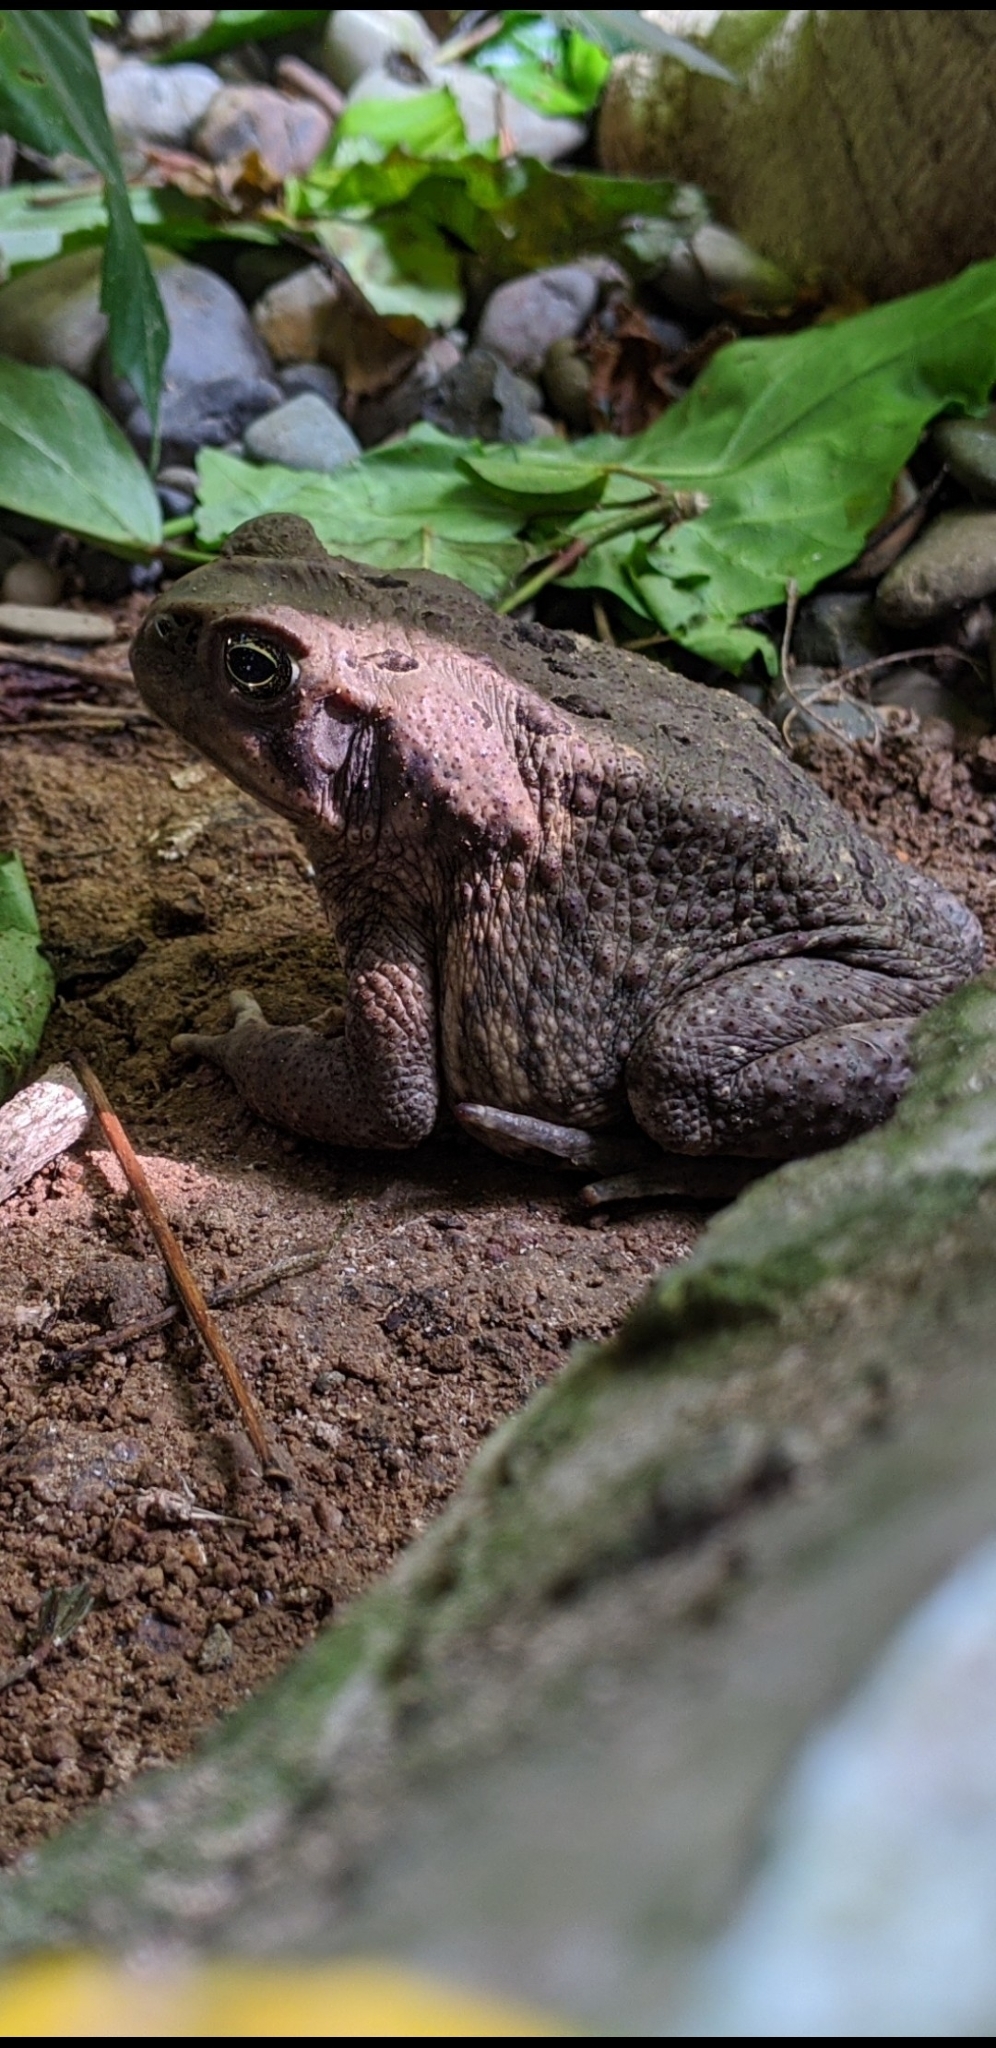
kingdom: Animalia
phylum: Chordata
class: Amphibia
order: Anura
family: Bufonidae
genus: Rhinella
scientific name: Rhinella
